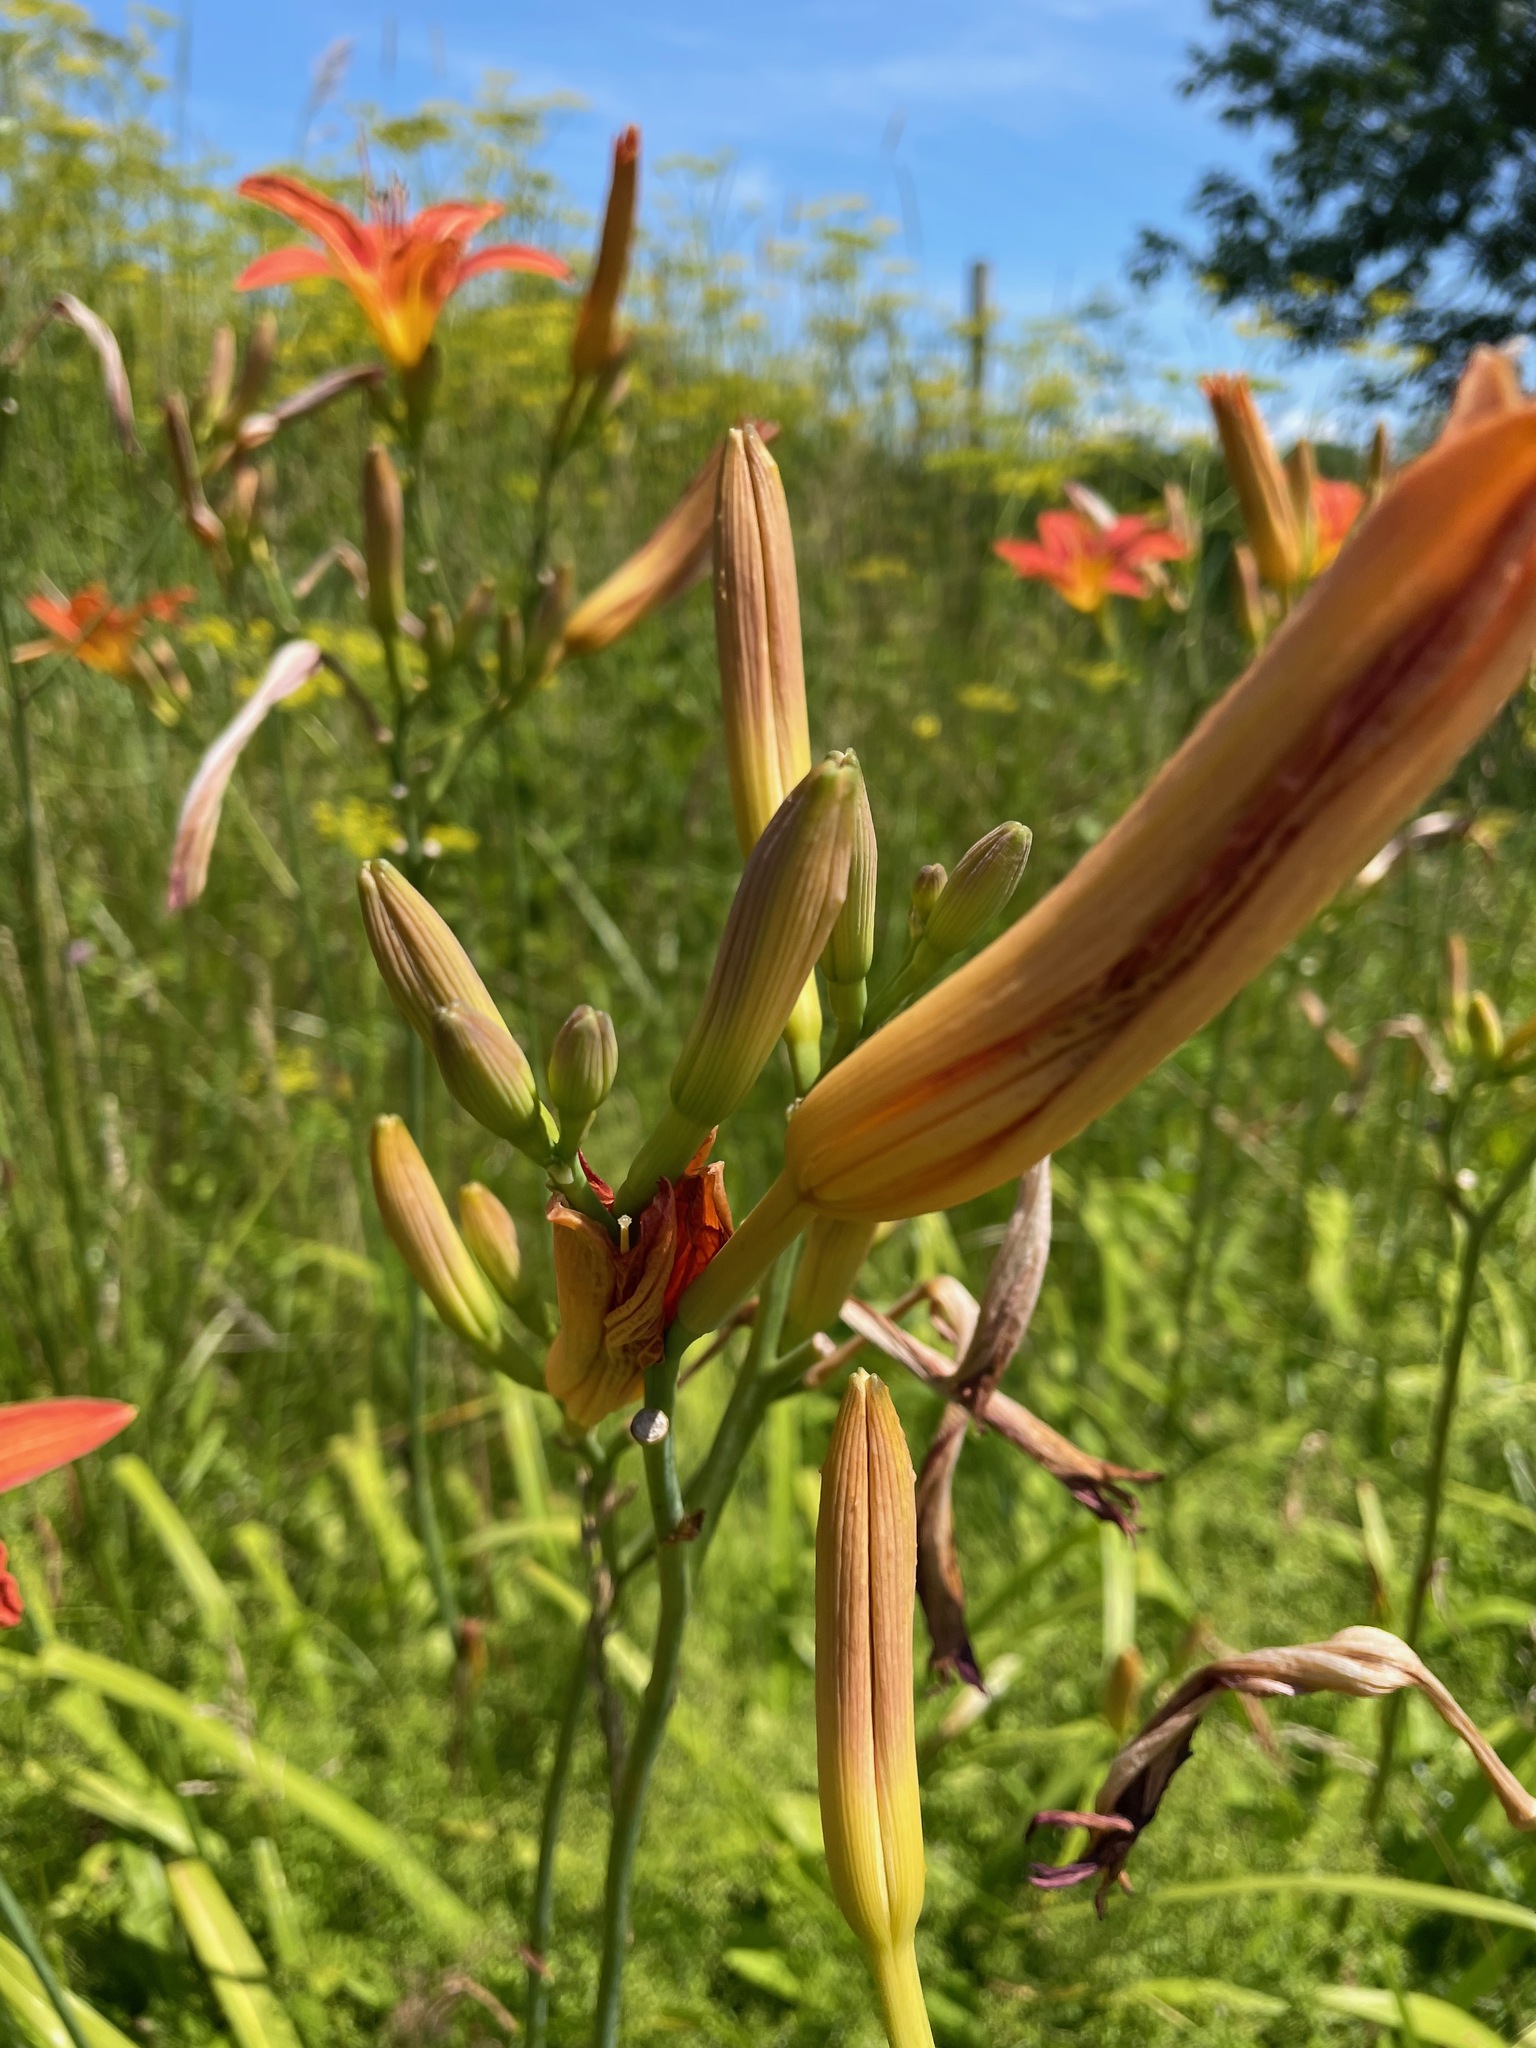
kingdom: Plantae
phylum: Tracheophyta
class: Liliopsida
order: Asparagales
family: Asphodelaceae
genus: Hemerocallis
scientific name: Hemerocallis fulva
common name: Orange day-lily
